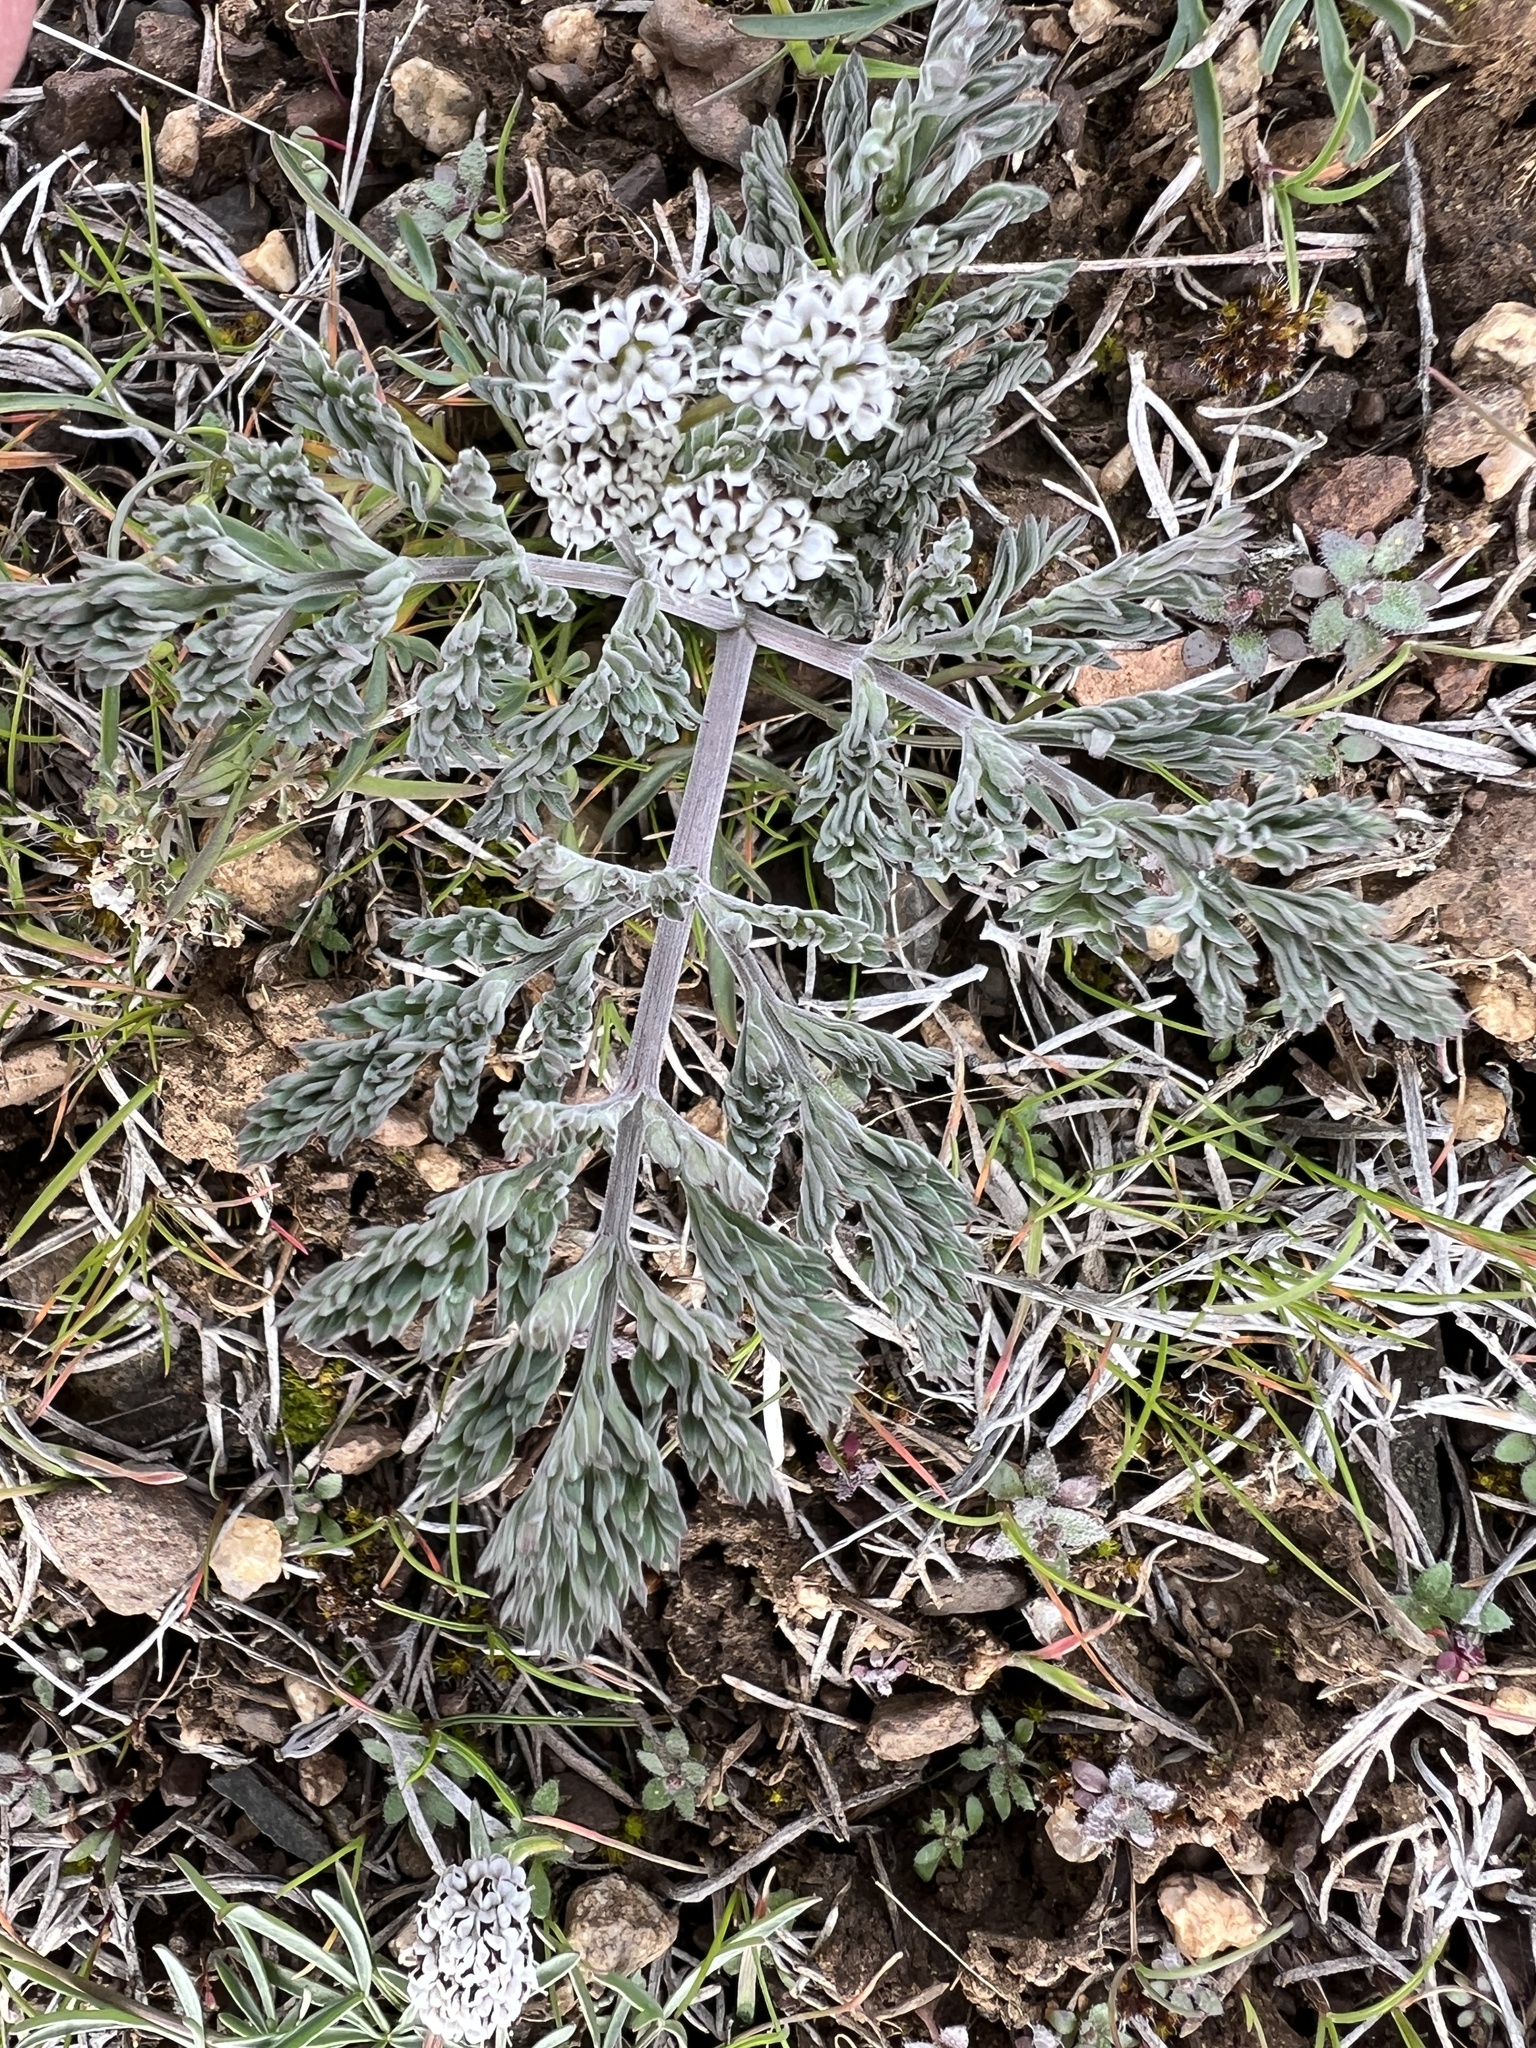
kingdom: Plantae
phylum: Tracheophyta
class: Magnoliopsida
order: Apiales
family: Apiaceae
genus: Lomatium
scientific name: Lomatium canbyi
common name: Chucklusa
